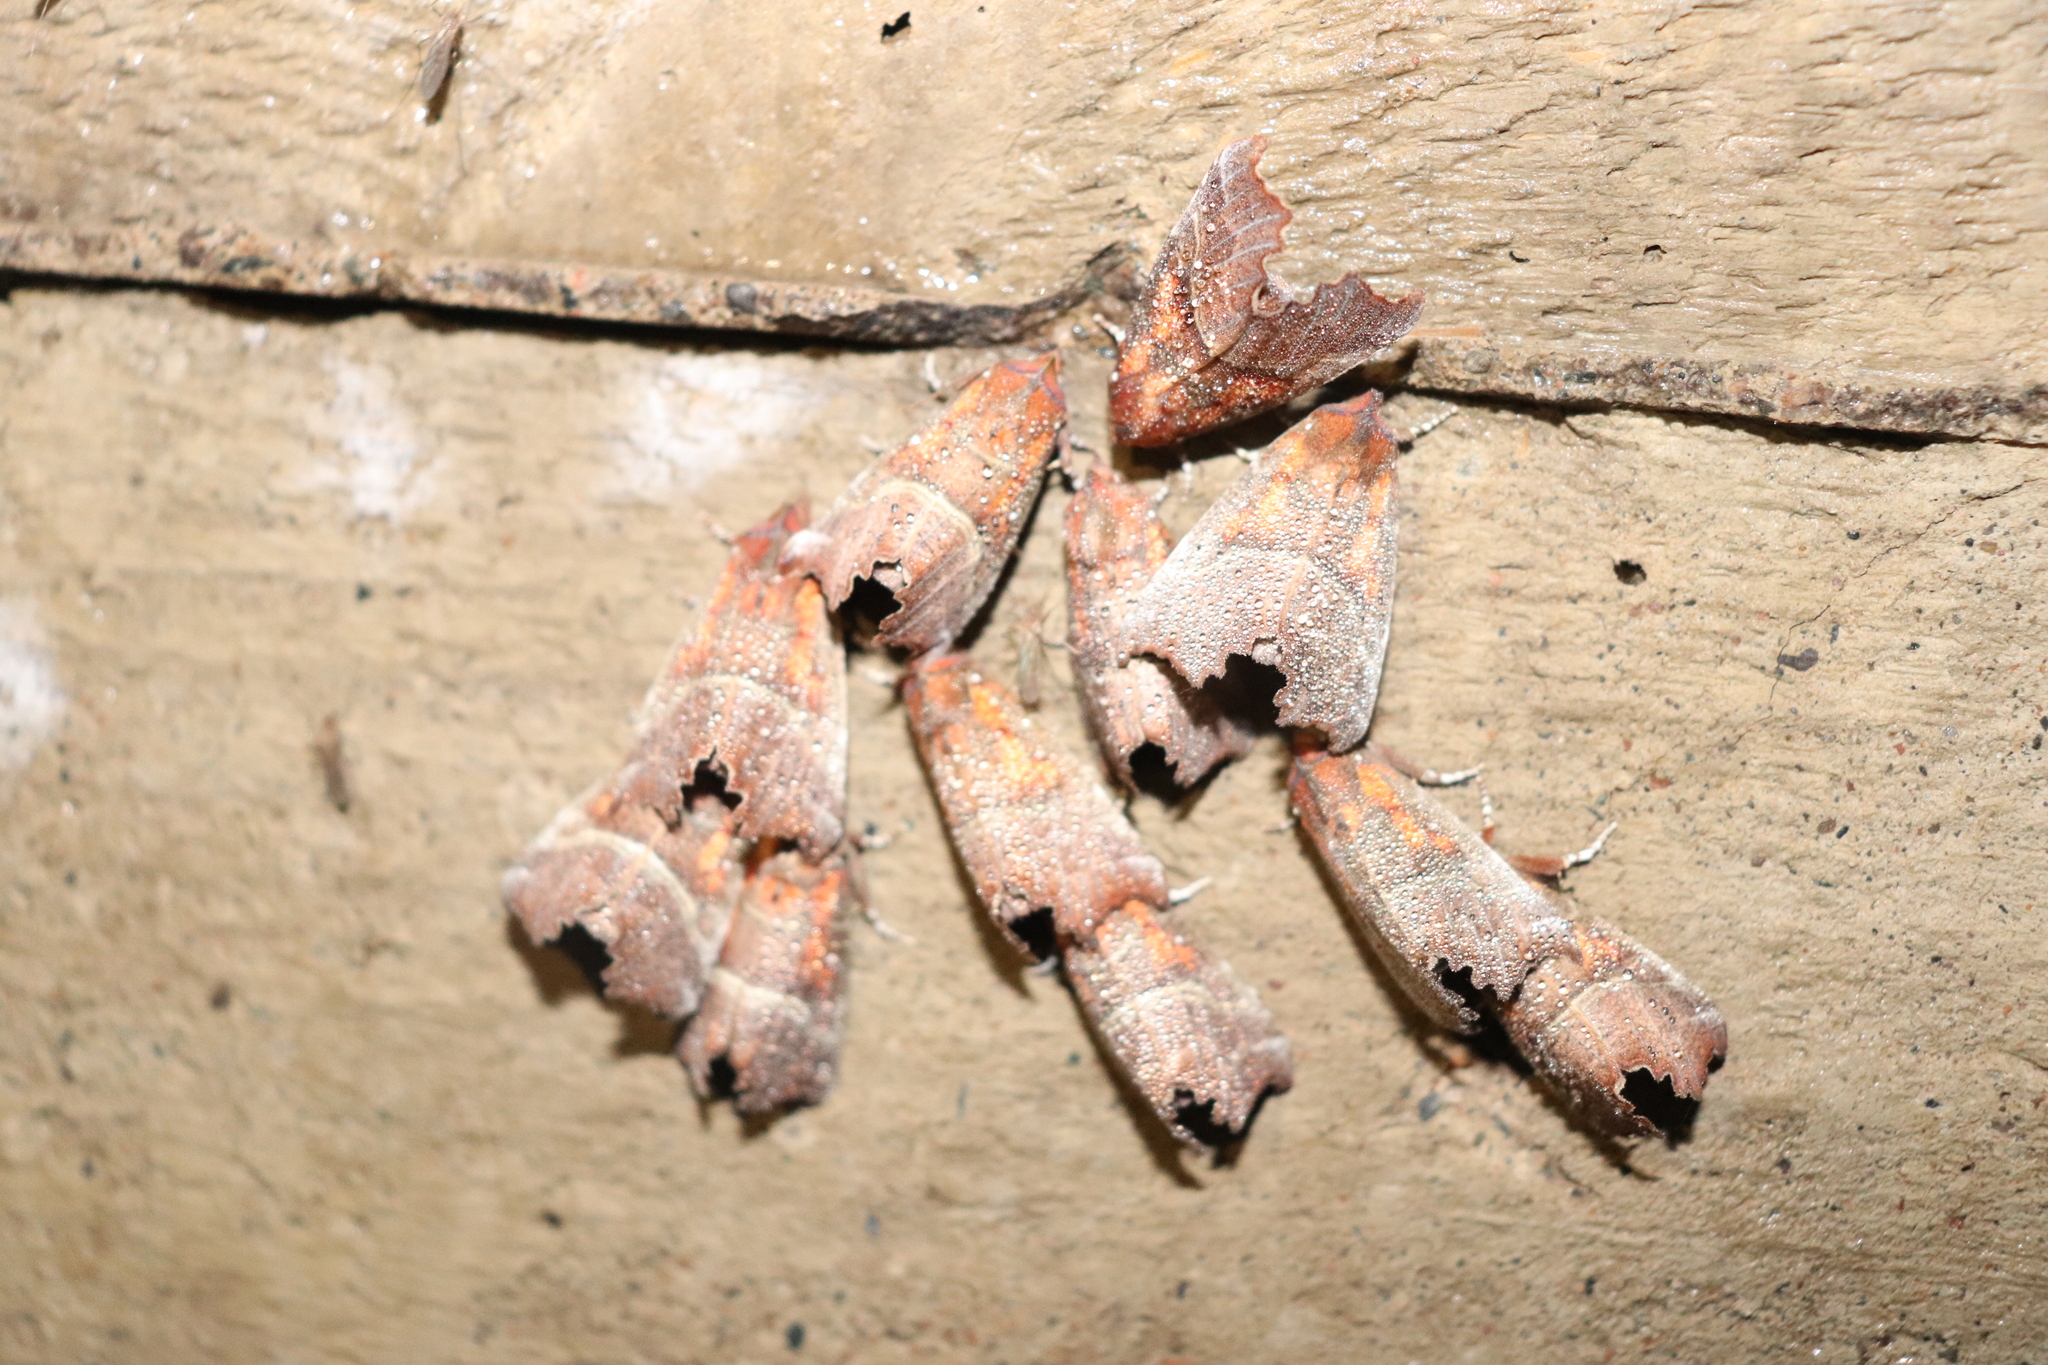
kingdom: Animalia
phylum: Arthropoda
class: Insecta
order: Lepidoptera
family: Erebidae
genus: Scoliopteryx
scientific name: Scoliopteryx libatrix
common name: Herald
